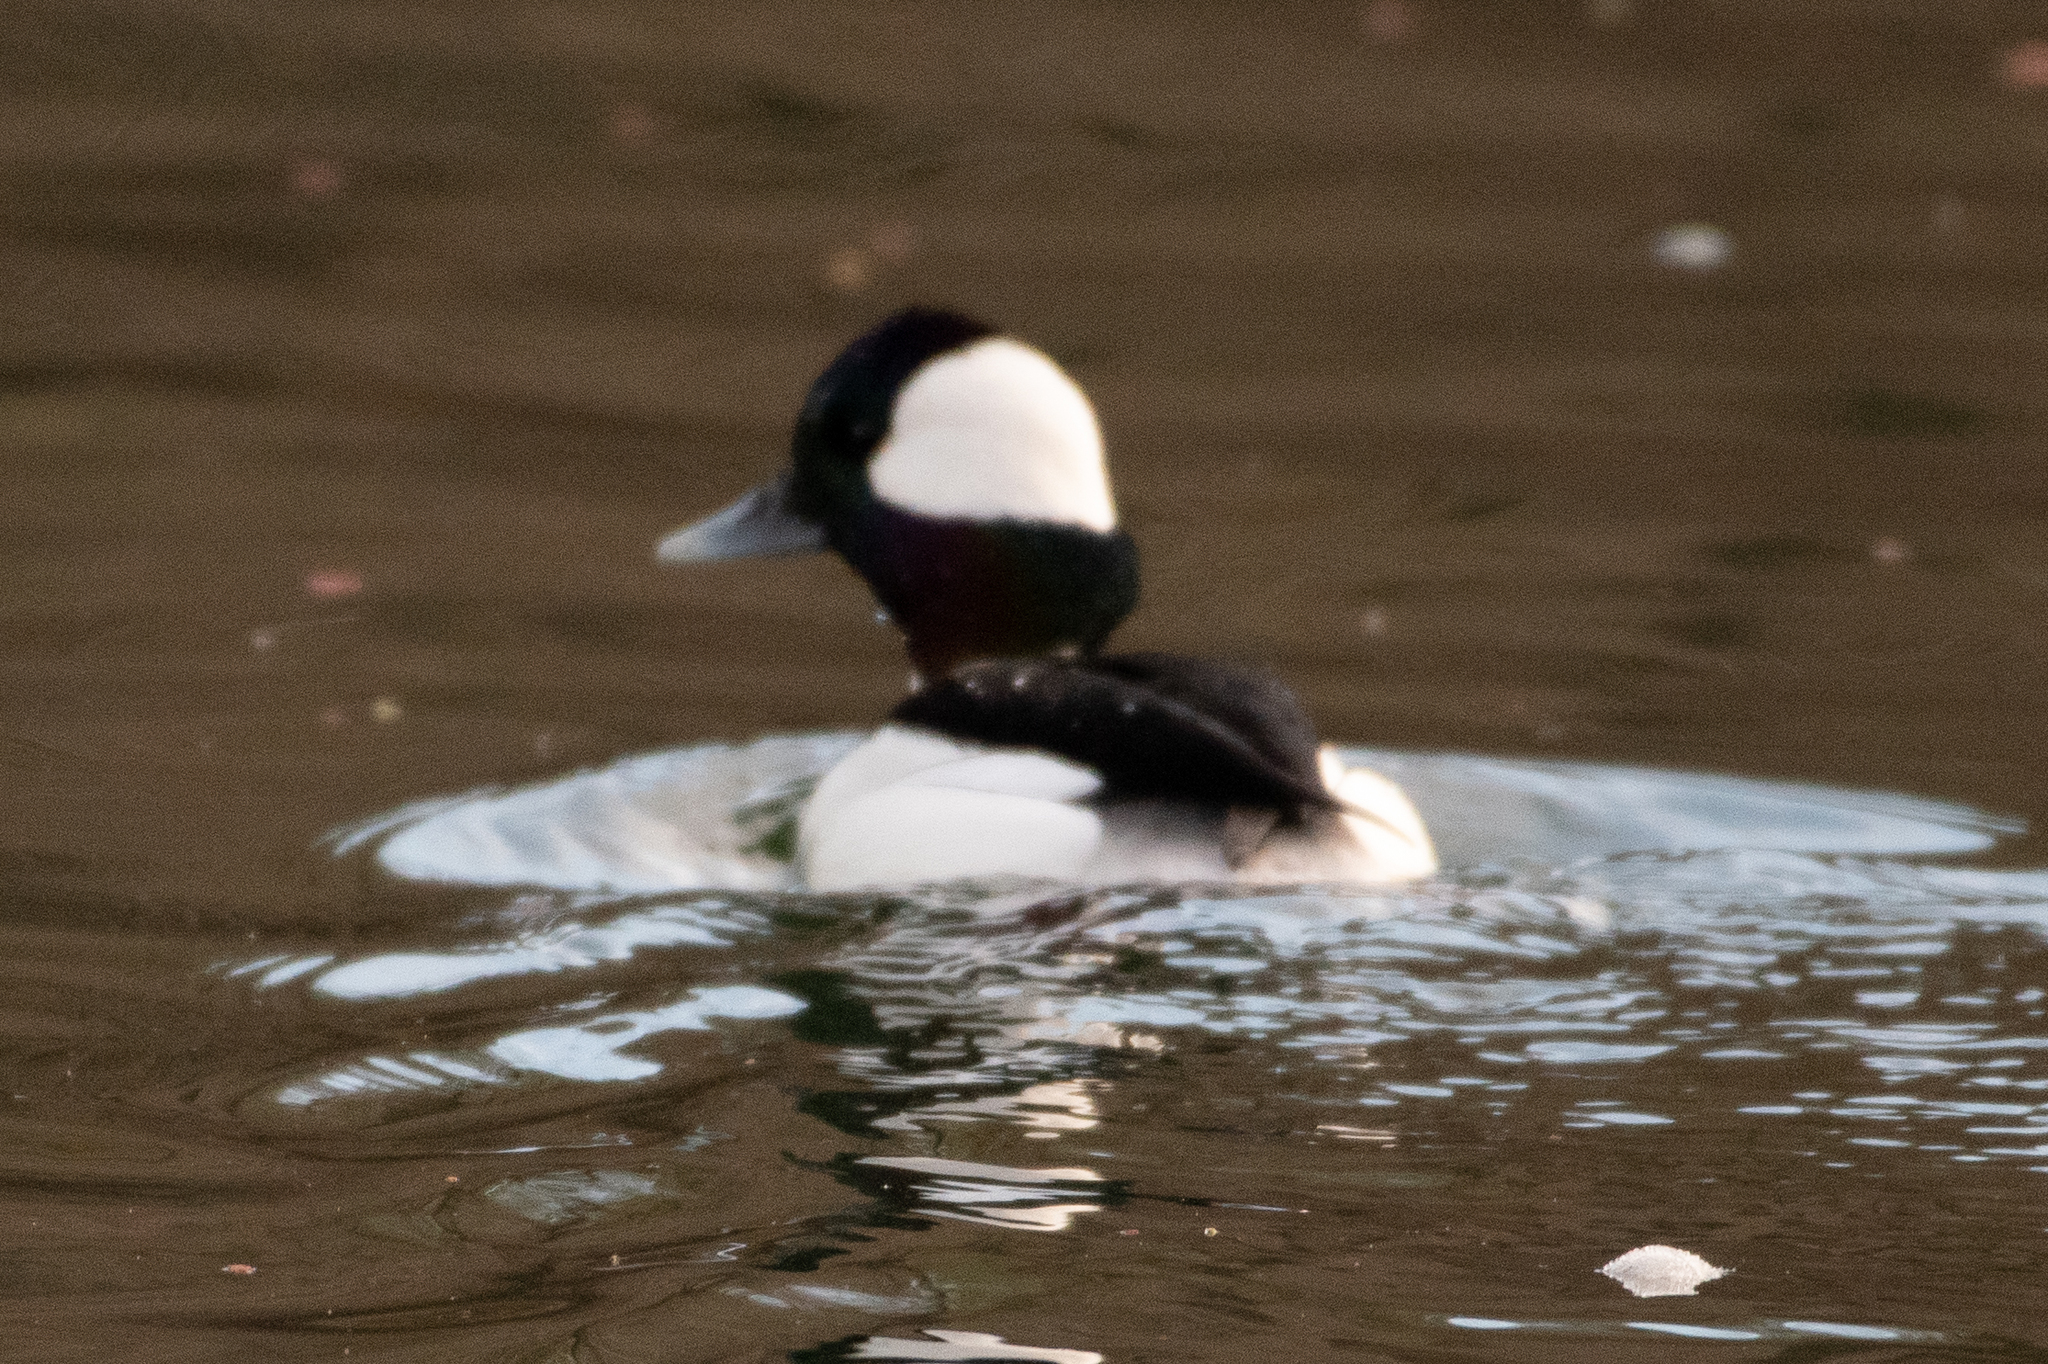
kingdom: Animalia
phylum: Chordata
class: Aves
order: Anseriformes
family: Anatidae
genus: Bucephala
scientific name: Bucephala albeola
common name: Bufflehead
